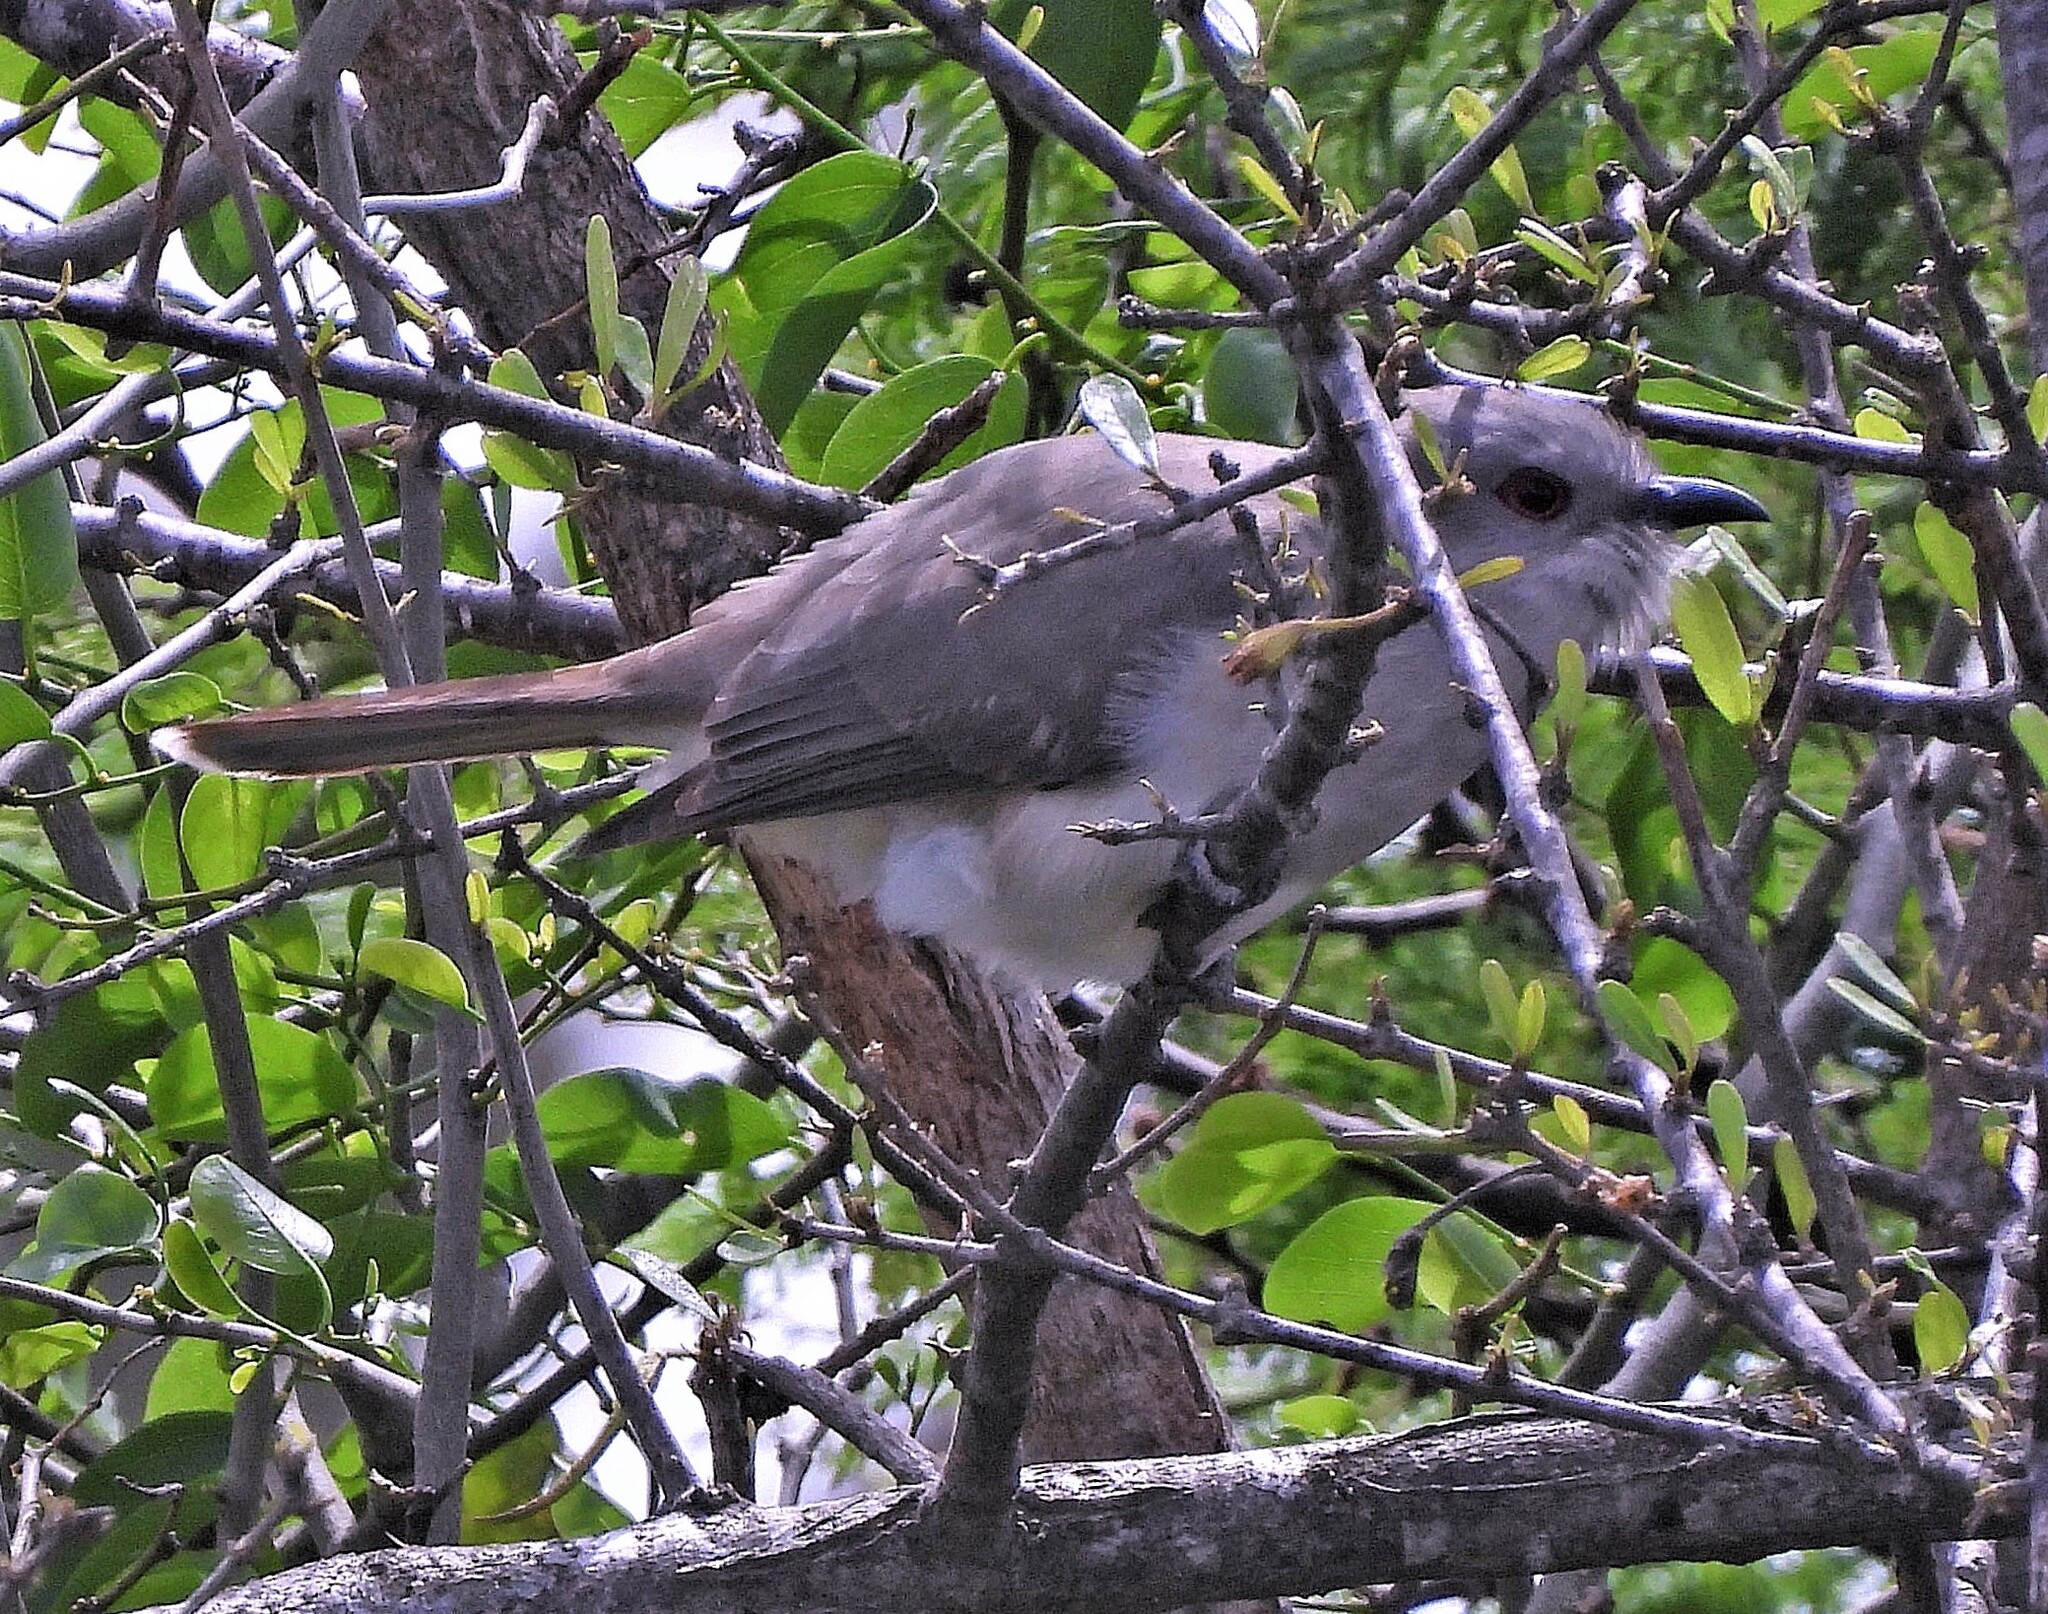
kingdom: Animalia
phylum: Chordata
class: Aves
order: Cuculiformes
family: Cuculidae
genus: Coccyzus
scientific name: Coccyzus cinereus
